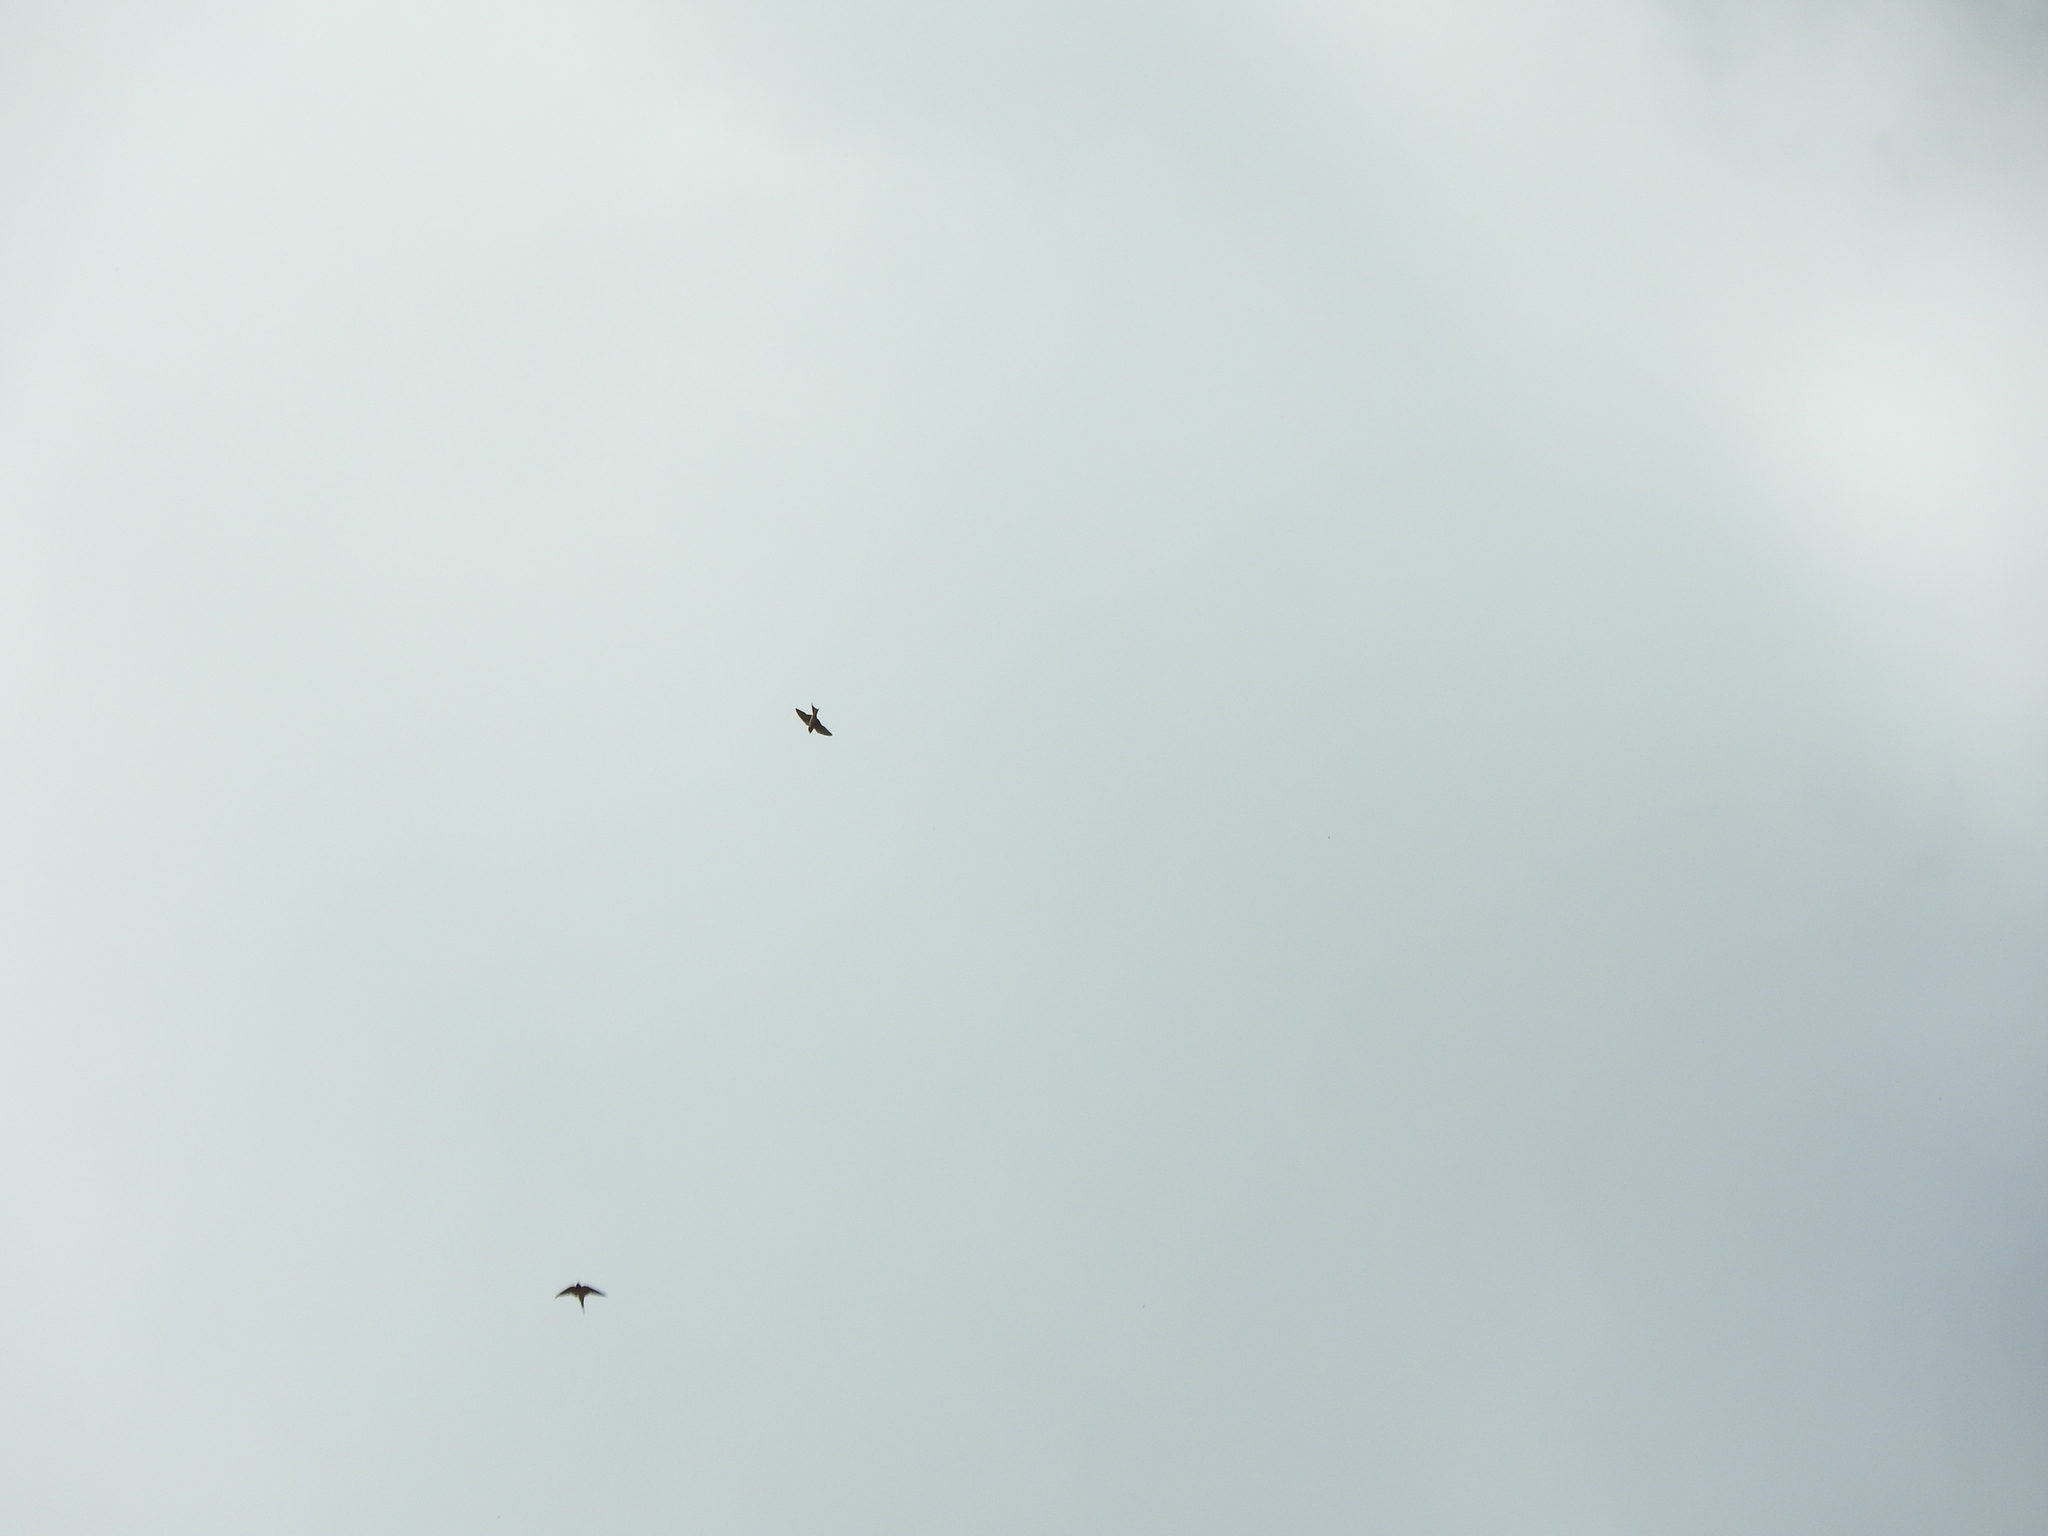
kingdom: Animalia
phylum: Chordata
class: Aves
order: Passeriformes
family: Hirundinidae
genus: Hirundo
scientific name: Hirundo rustica
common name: Barn swallow
